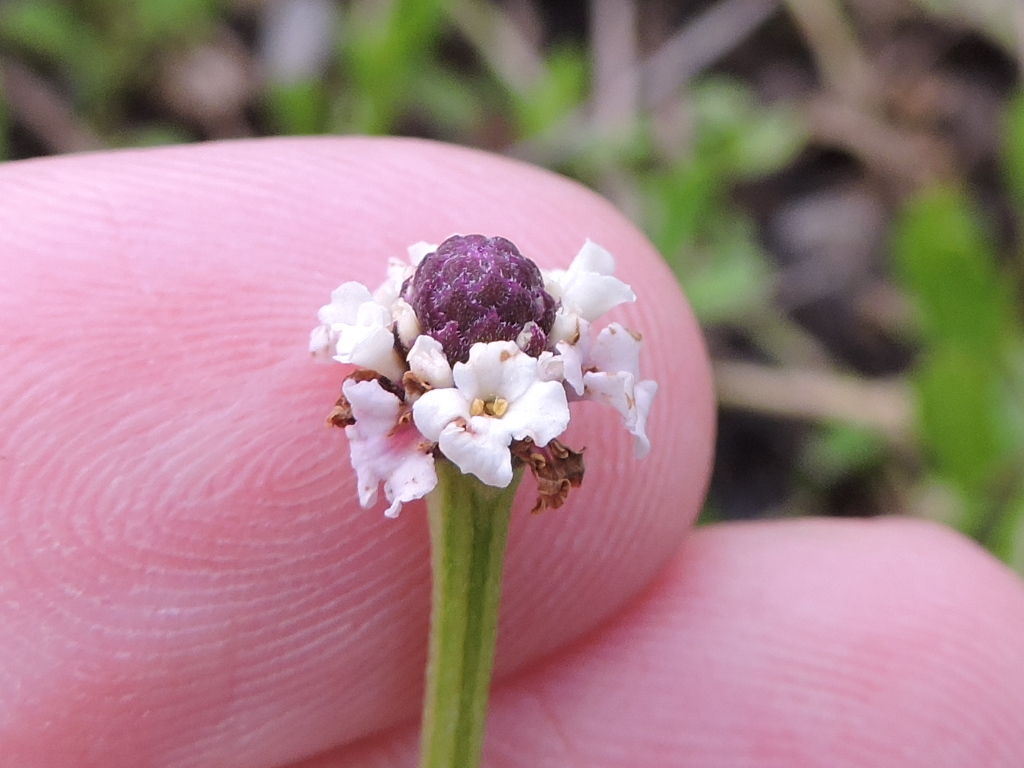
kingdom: Plantae
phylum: Tracheophyta
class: Magnoliopsida
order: Lamiales
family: Verbenaceae
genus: Phyla
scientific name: Phyla nodiflora
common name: Frogfruit
